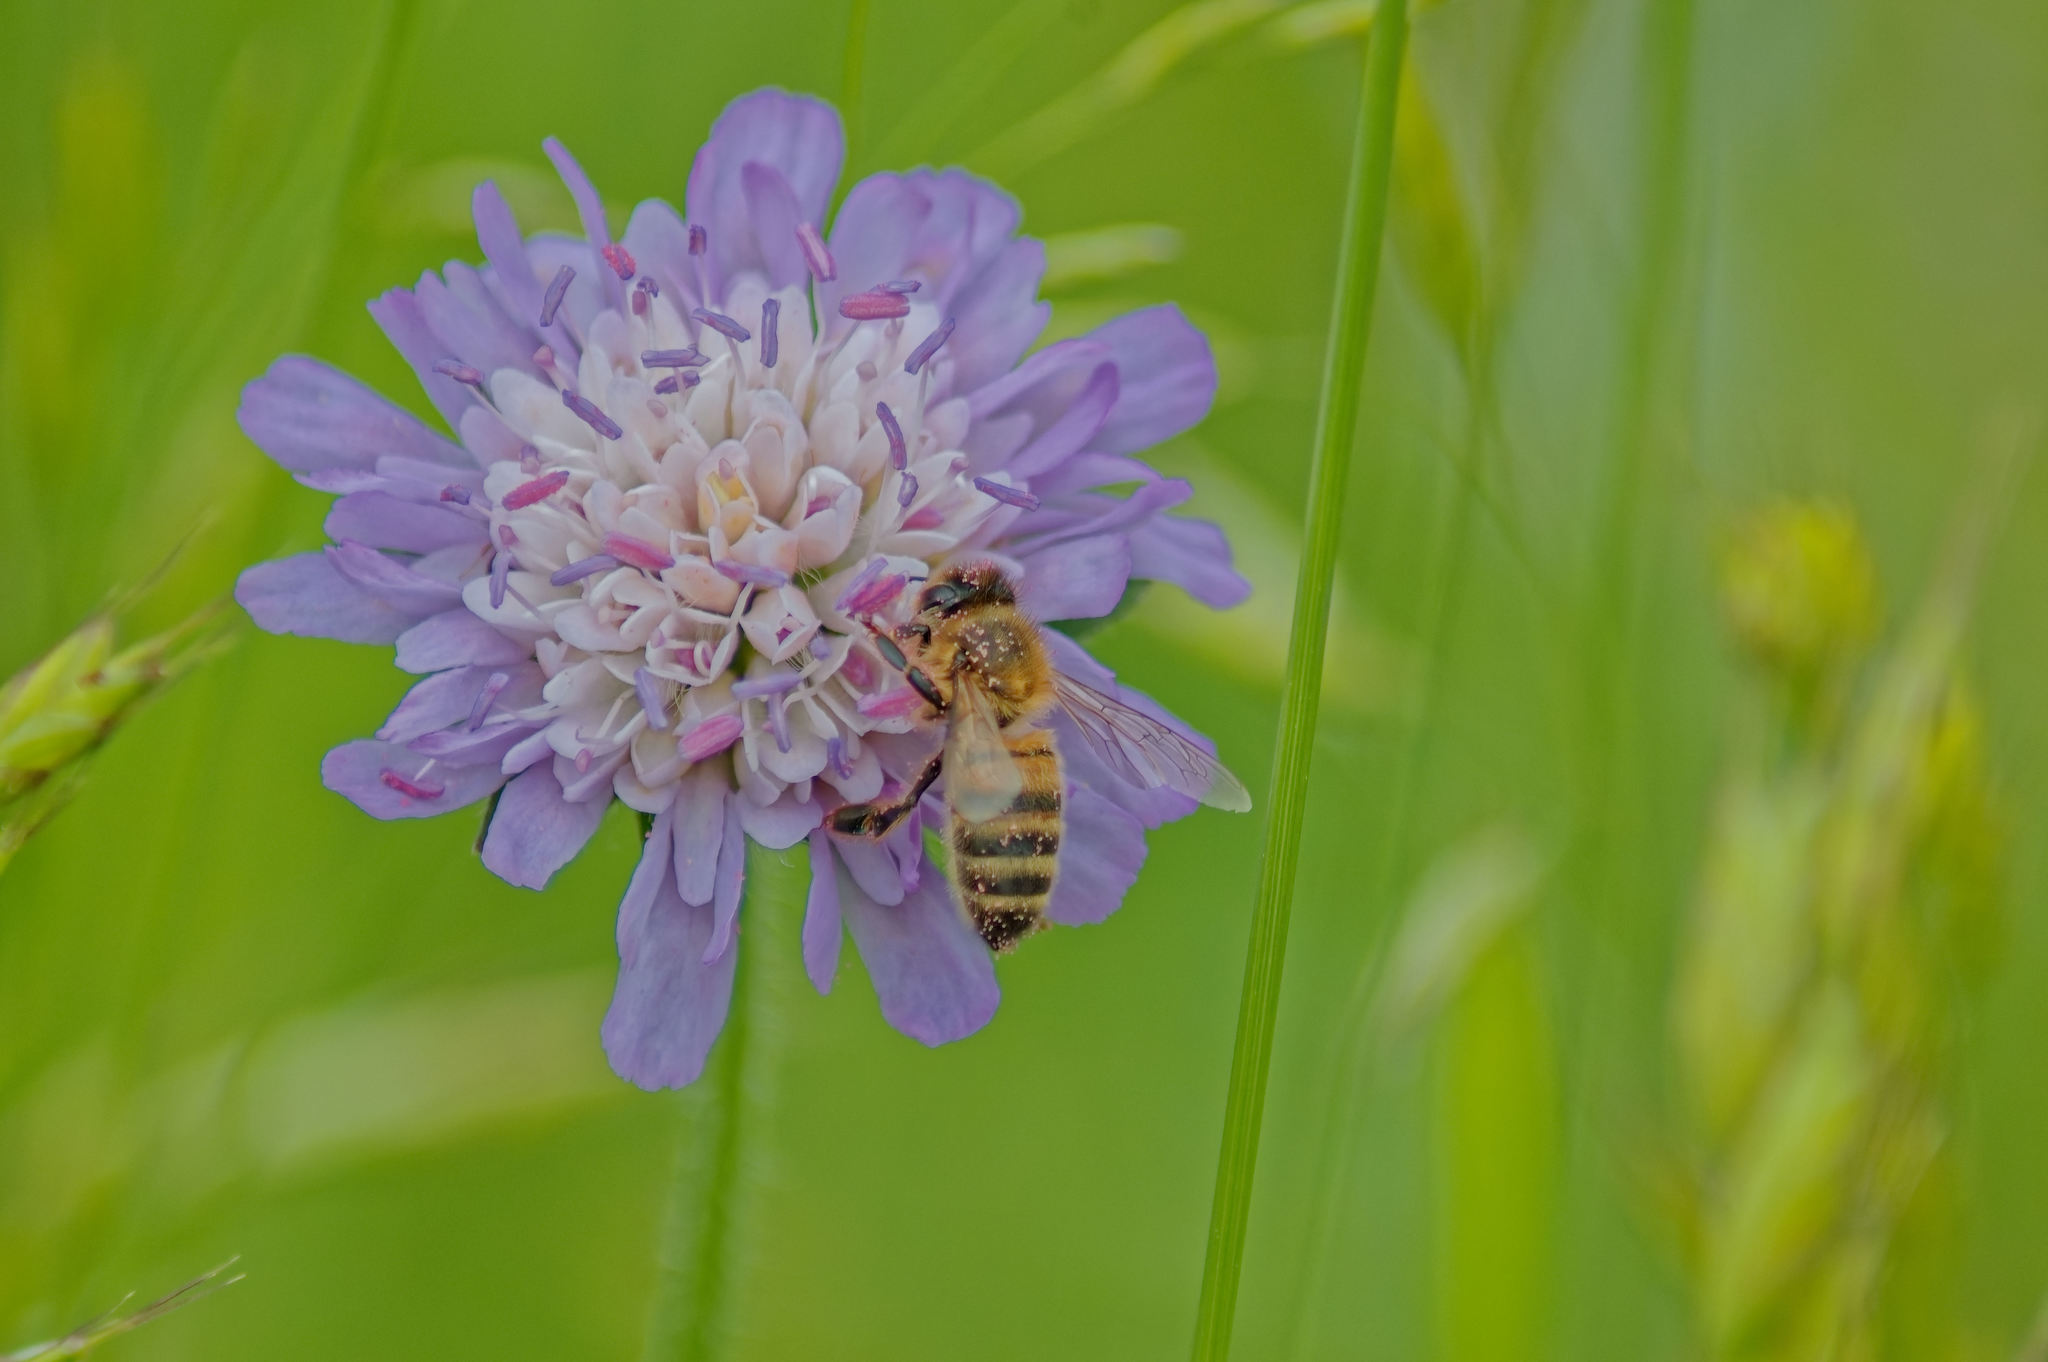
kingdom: Animalia
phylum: Arthropoda
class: Insecta
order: Hymenoptera
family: Apidae
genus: Apis
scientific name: Apis mellifera
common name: Honey bee
